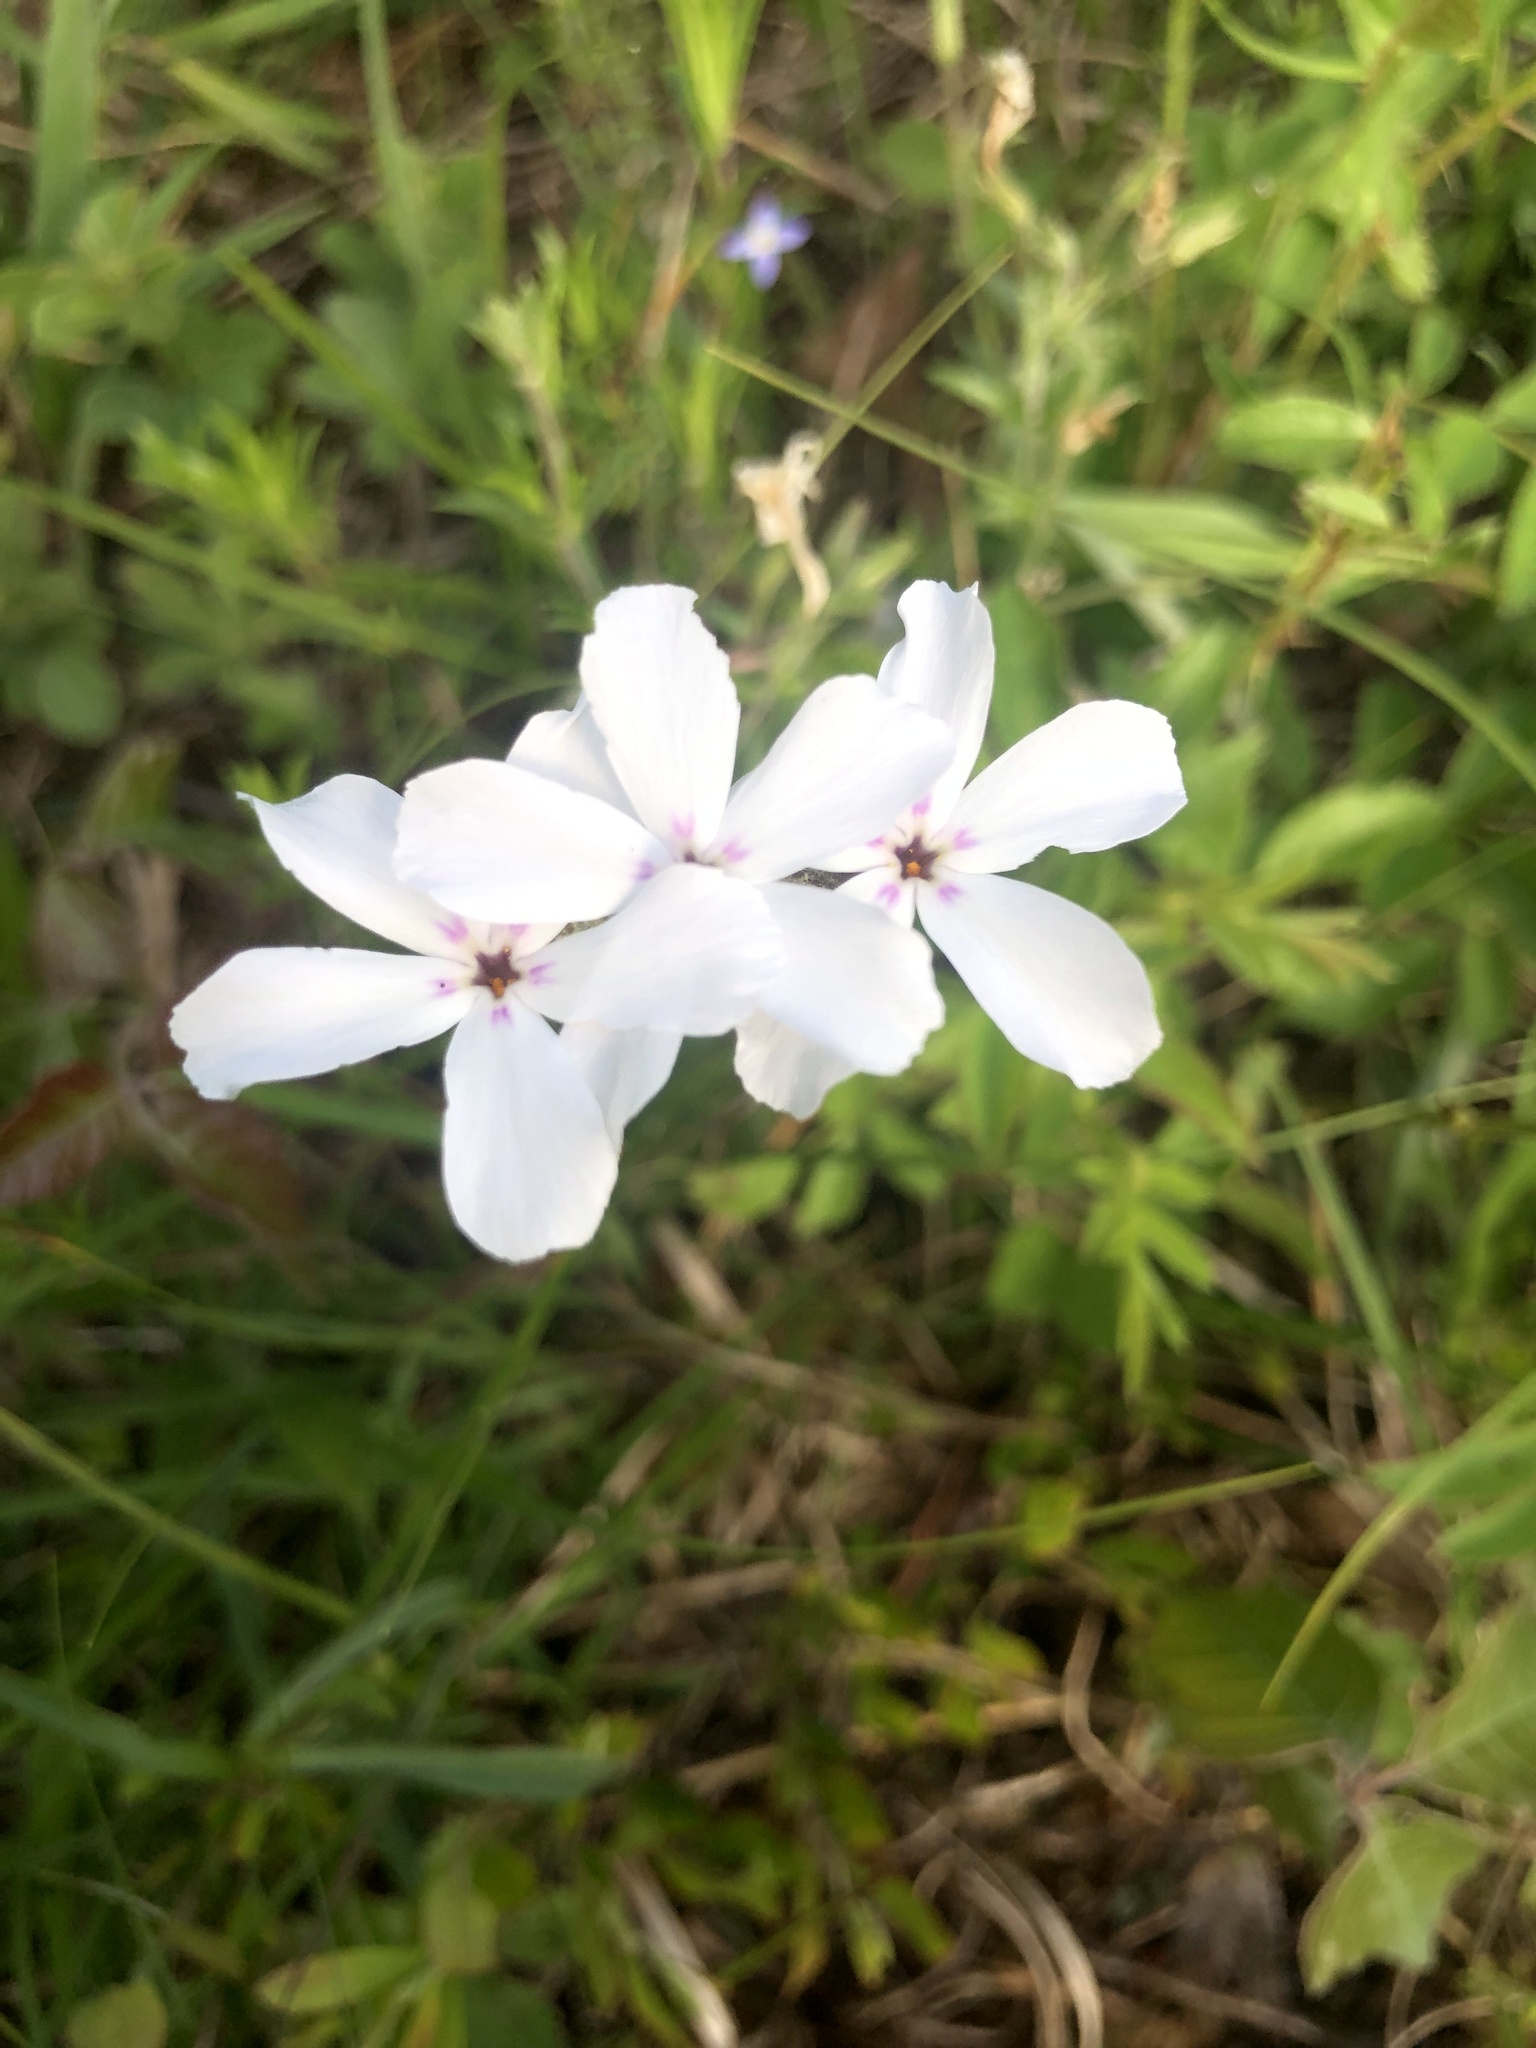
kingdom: Plantae
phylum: Tracheophyta
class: Magnoliopsida
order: Ericales
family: Polemoniaceae
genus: Phlox
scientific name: Phlox nivalis
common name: Trailing phlox
